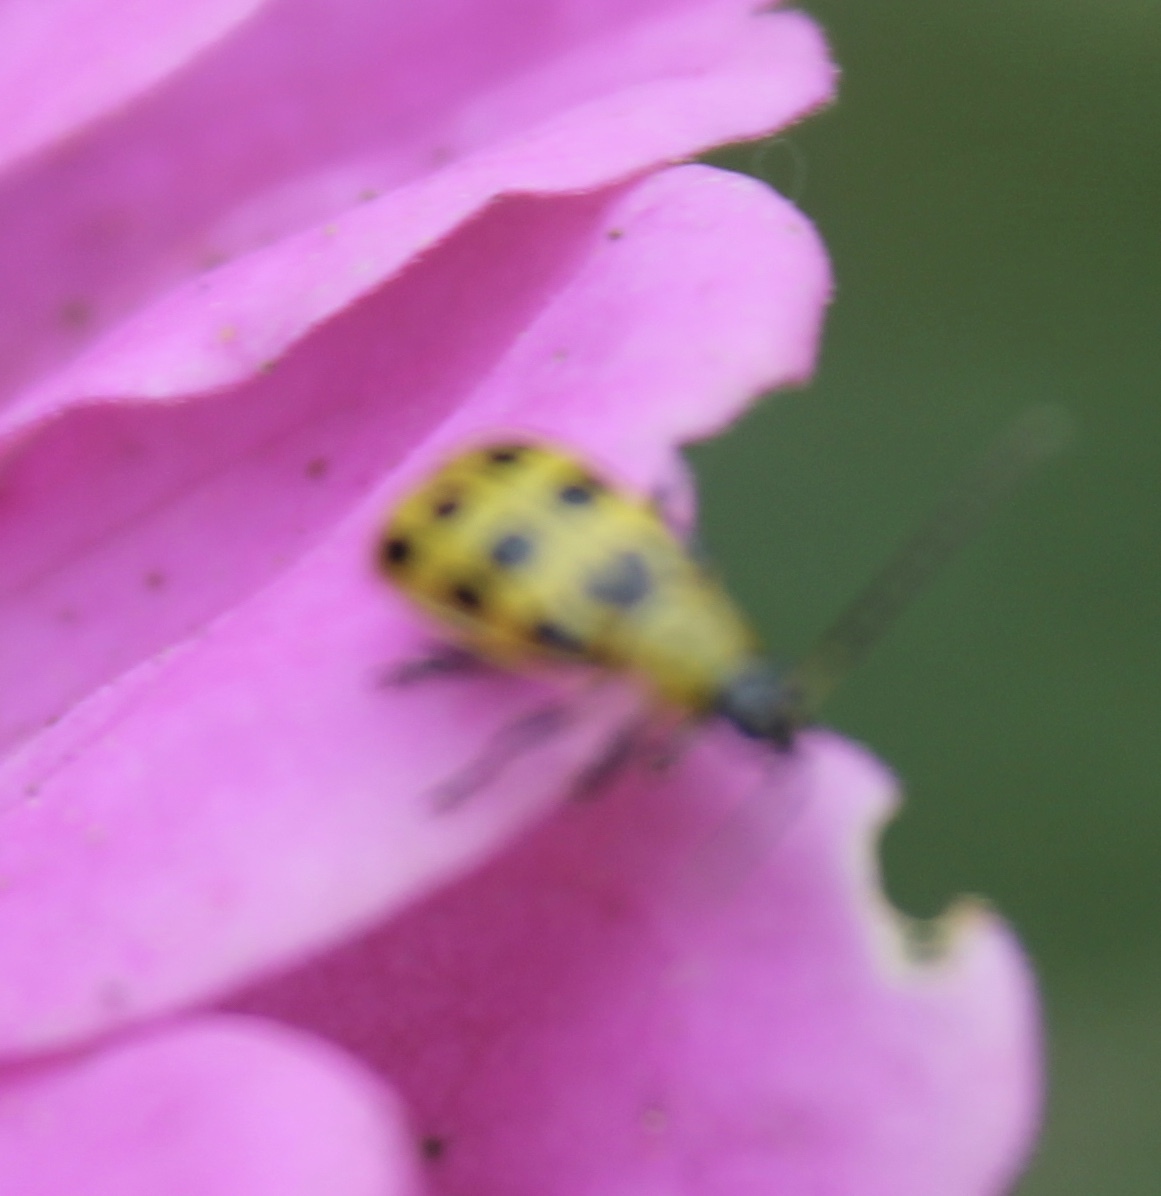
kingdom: Animalia
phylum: Arthropoda
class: Insecta
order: Coleoptera
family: Chrysomelidae
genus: Diabrotica
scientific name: Diabrotica undecimpunctata
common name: Spotted cucumber beetle
